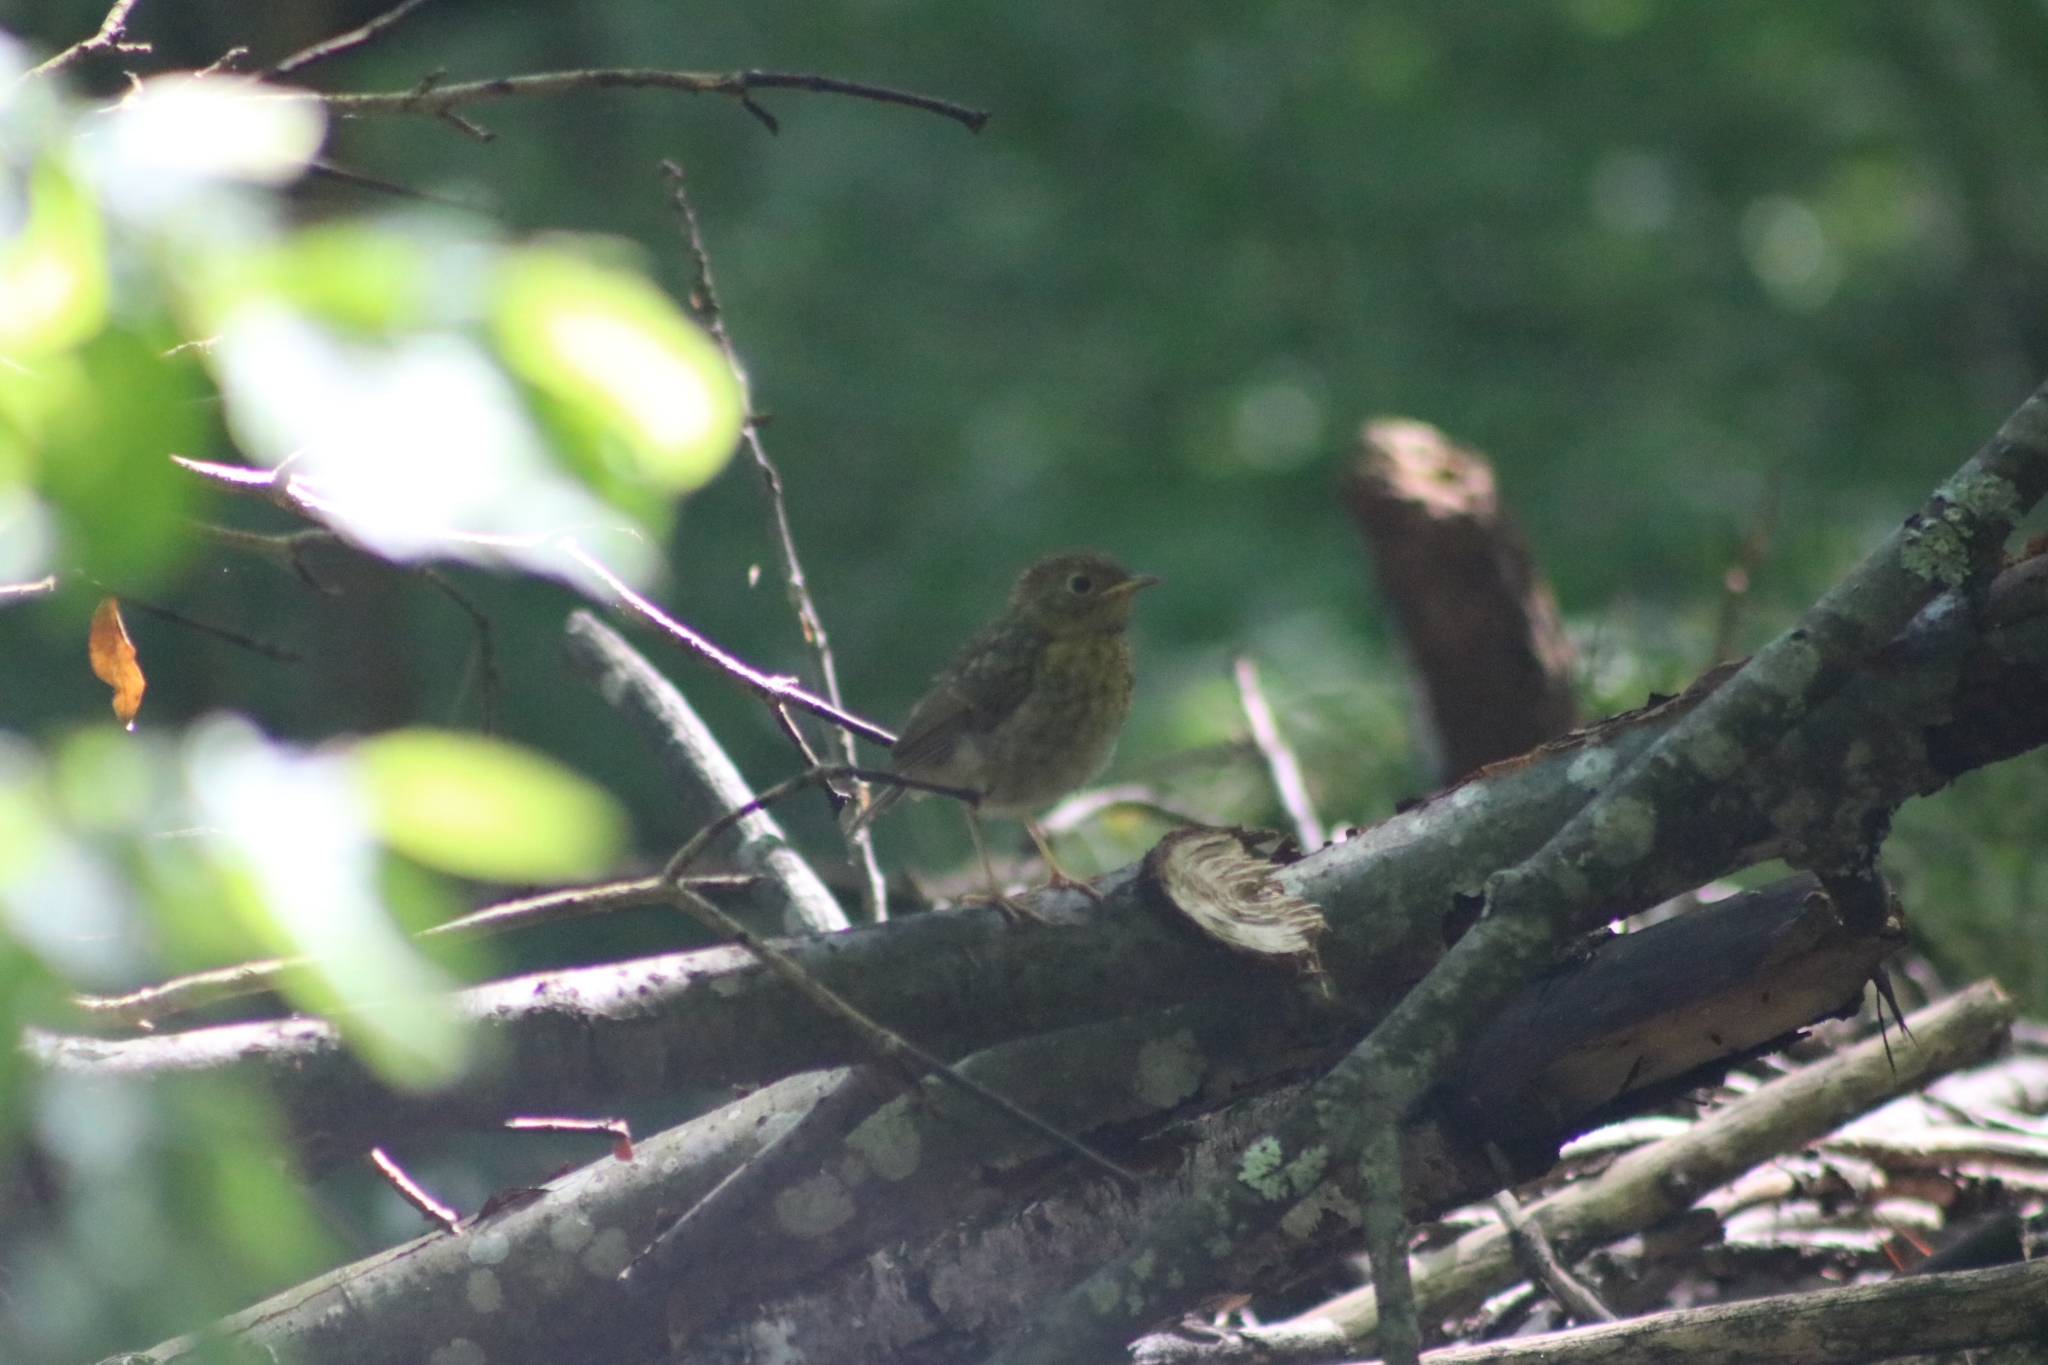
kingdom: Animalia
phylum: Chordata
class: Aves
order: Passeriformes
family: Muscicapidae
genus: Erithacus
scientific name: Erithacus rubecula
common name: European robin
